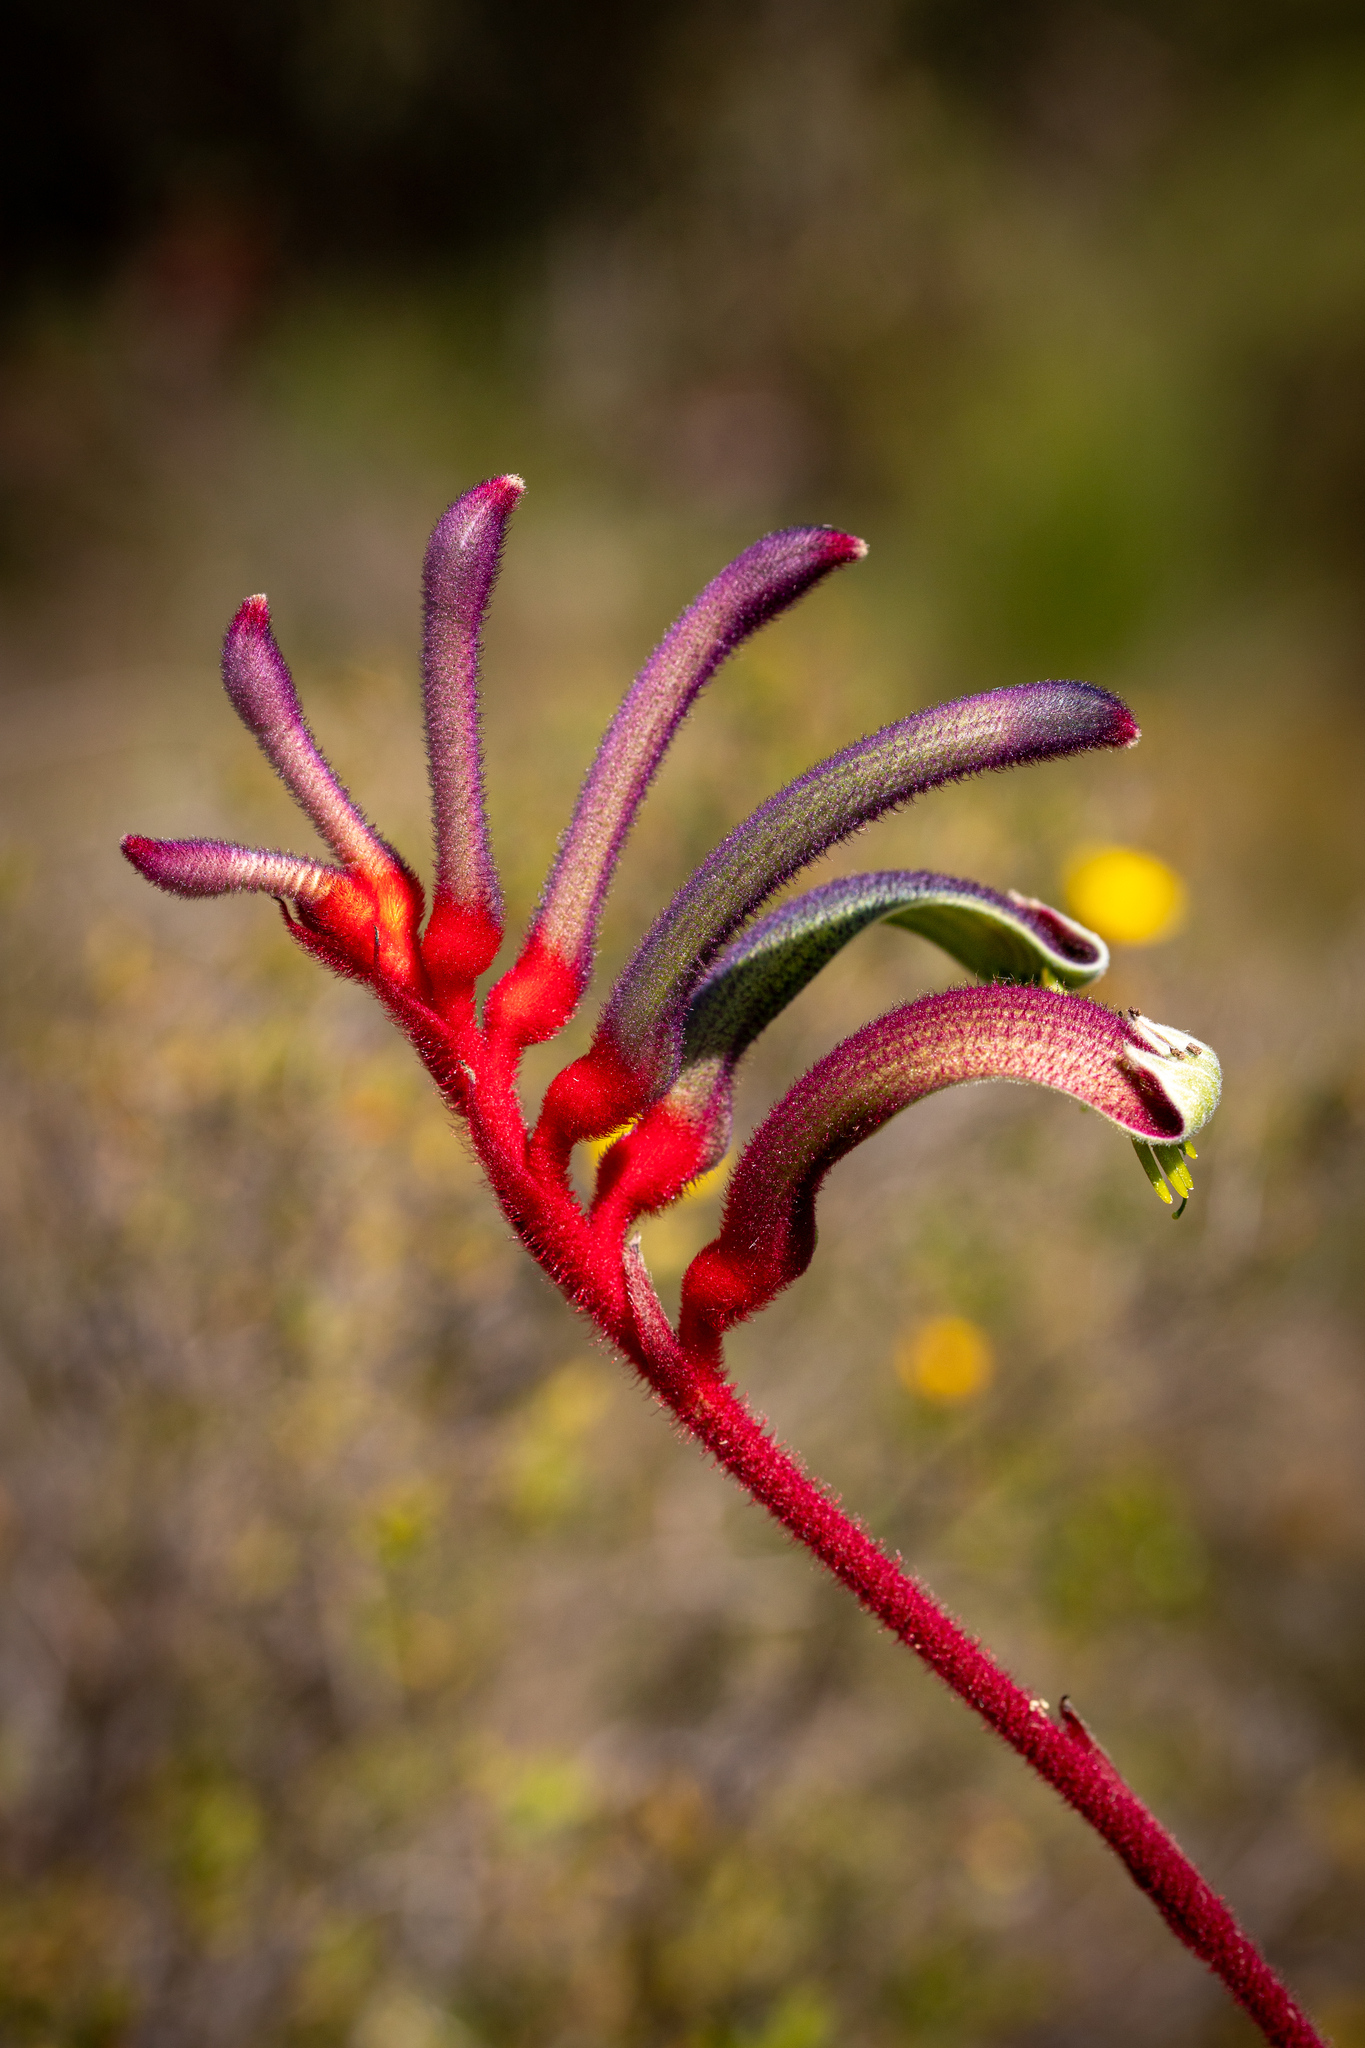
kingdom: Plantae
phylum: Tracheophyta
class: Liliopsida
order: Commelinales
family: Haemodoraceae
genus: Anigozanthos
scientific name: Anigozanthos manglesii
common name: Mangles's kangaroo-paw
